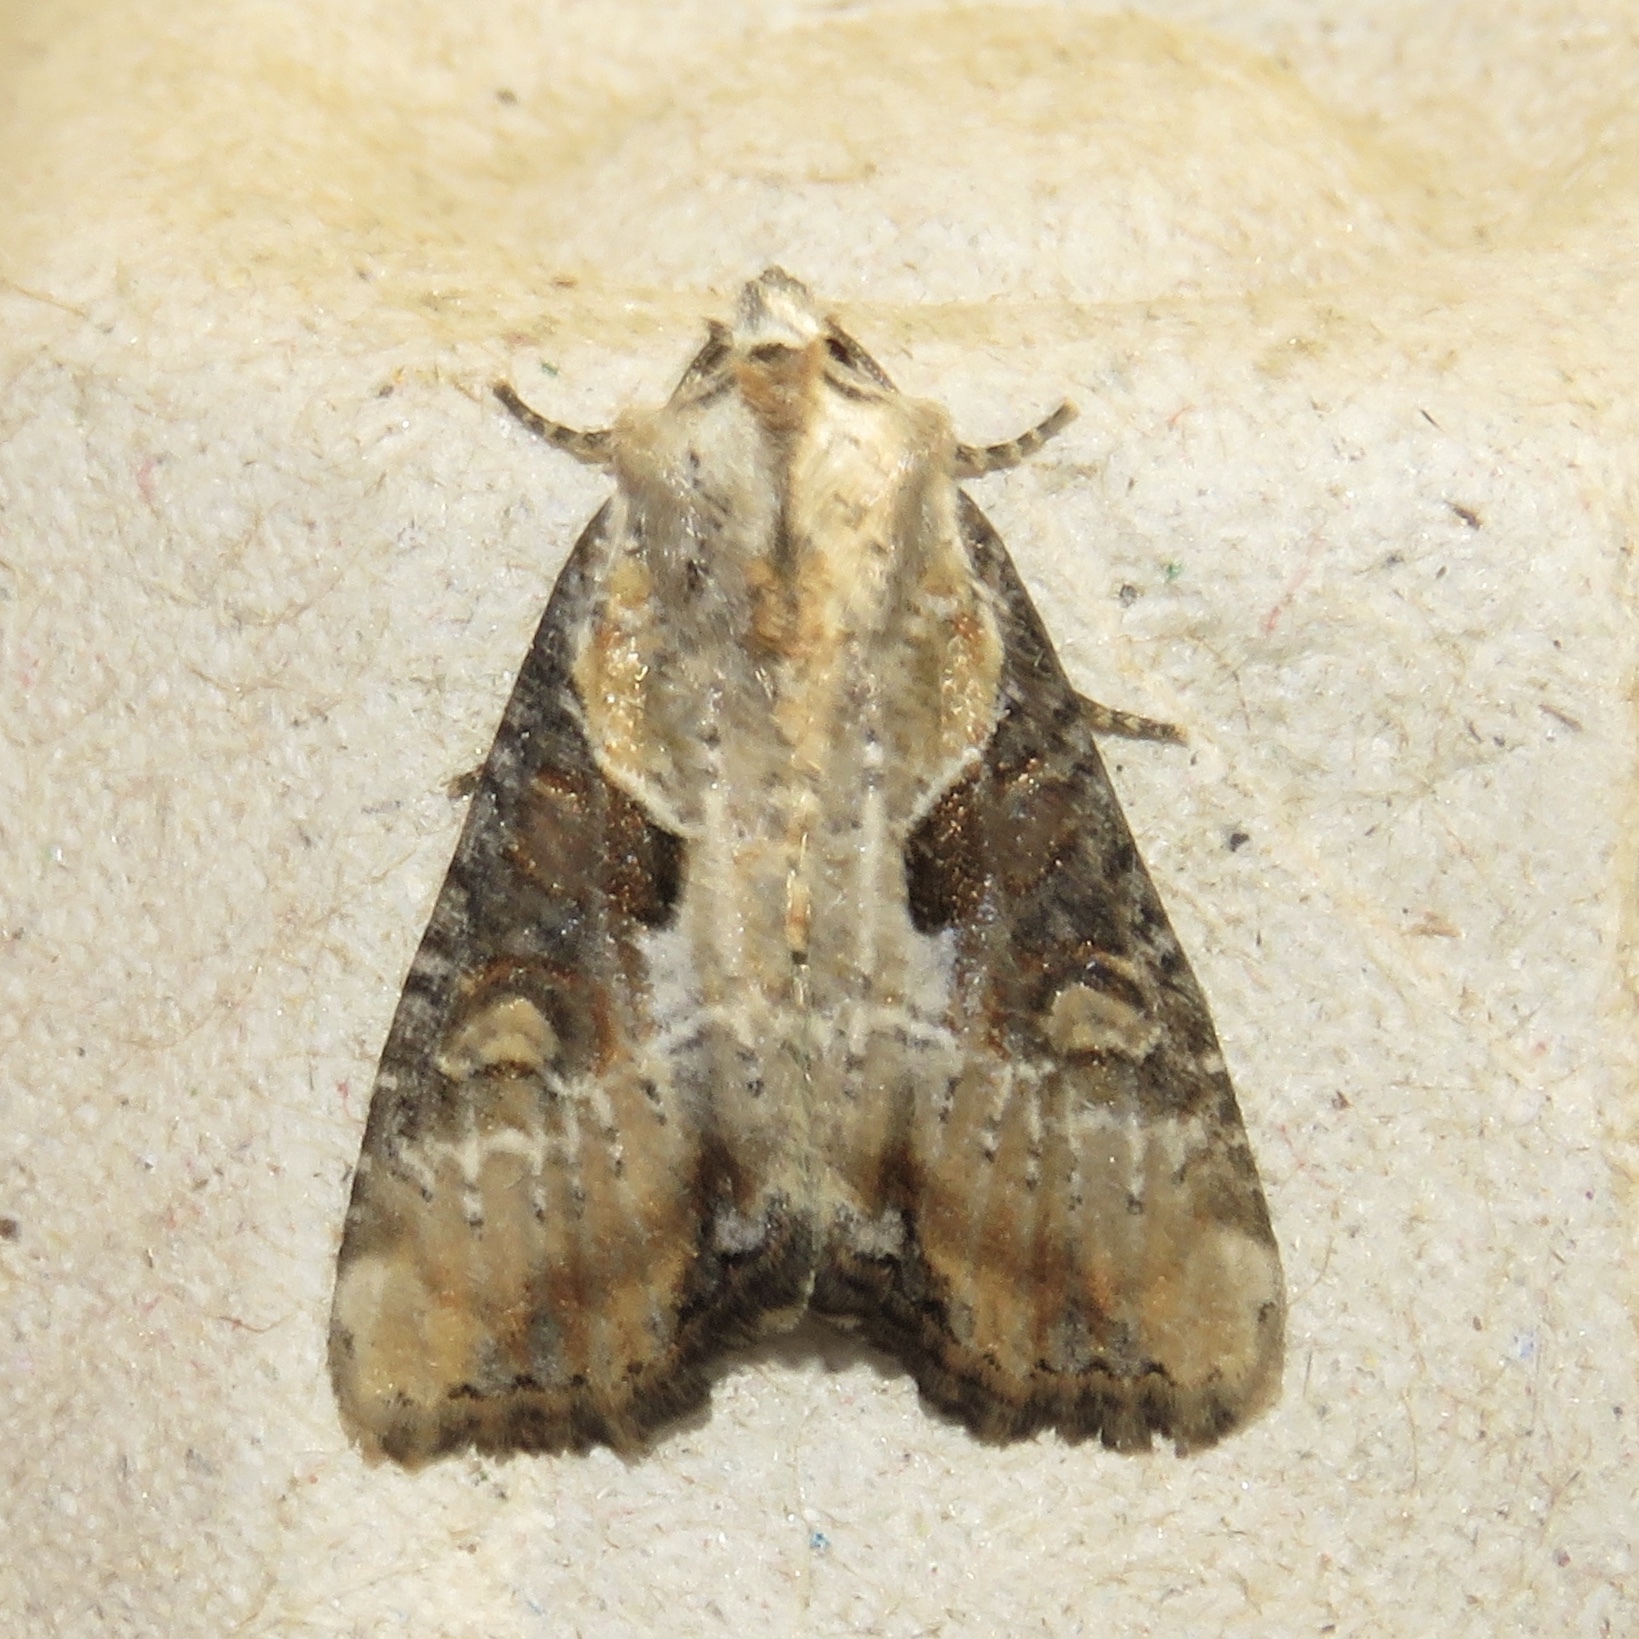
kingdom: Animalia
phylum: Arthropoda
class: Insecta
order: Lepidoptera
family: Noctuidae
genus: Lateroligia
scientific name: Lateroligia ophiogramma
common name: Double lobed
